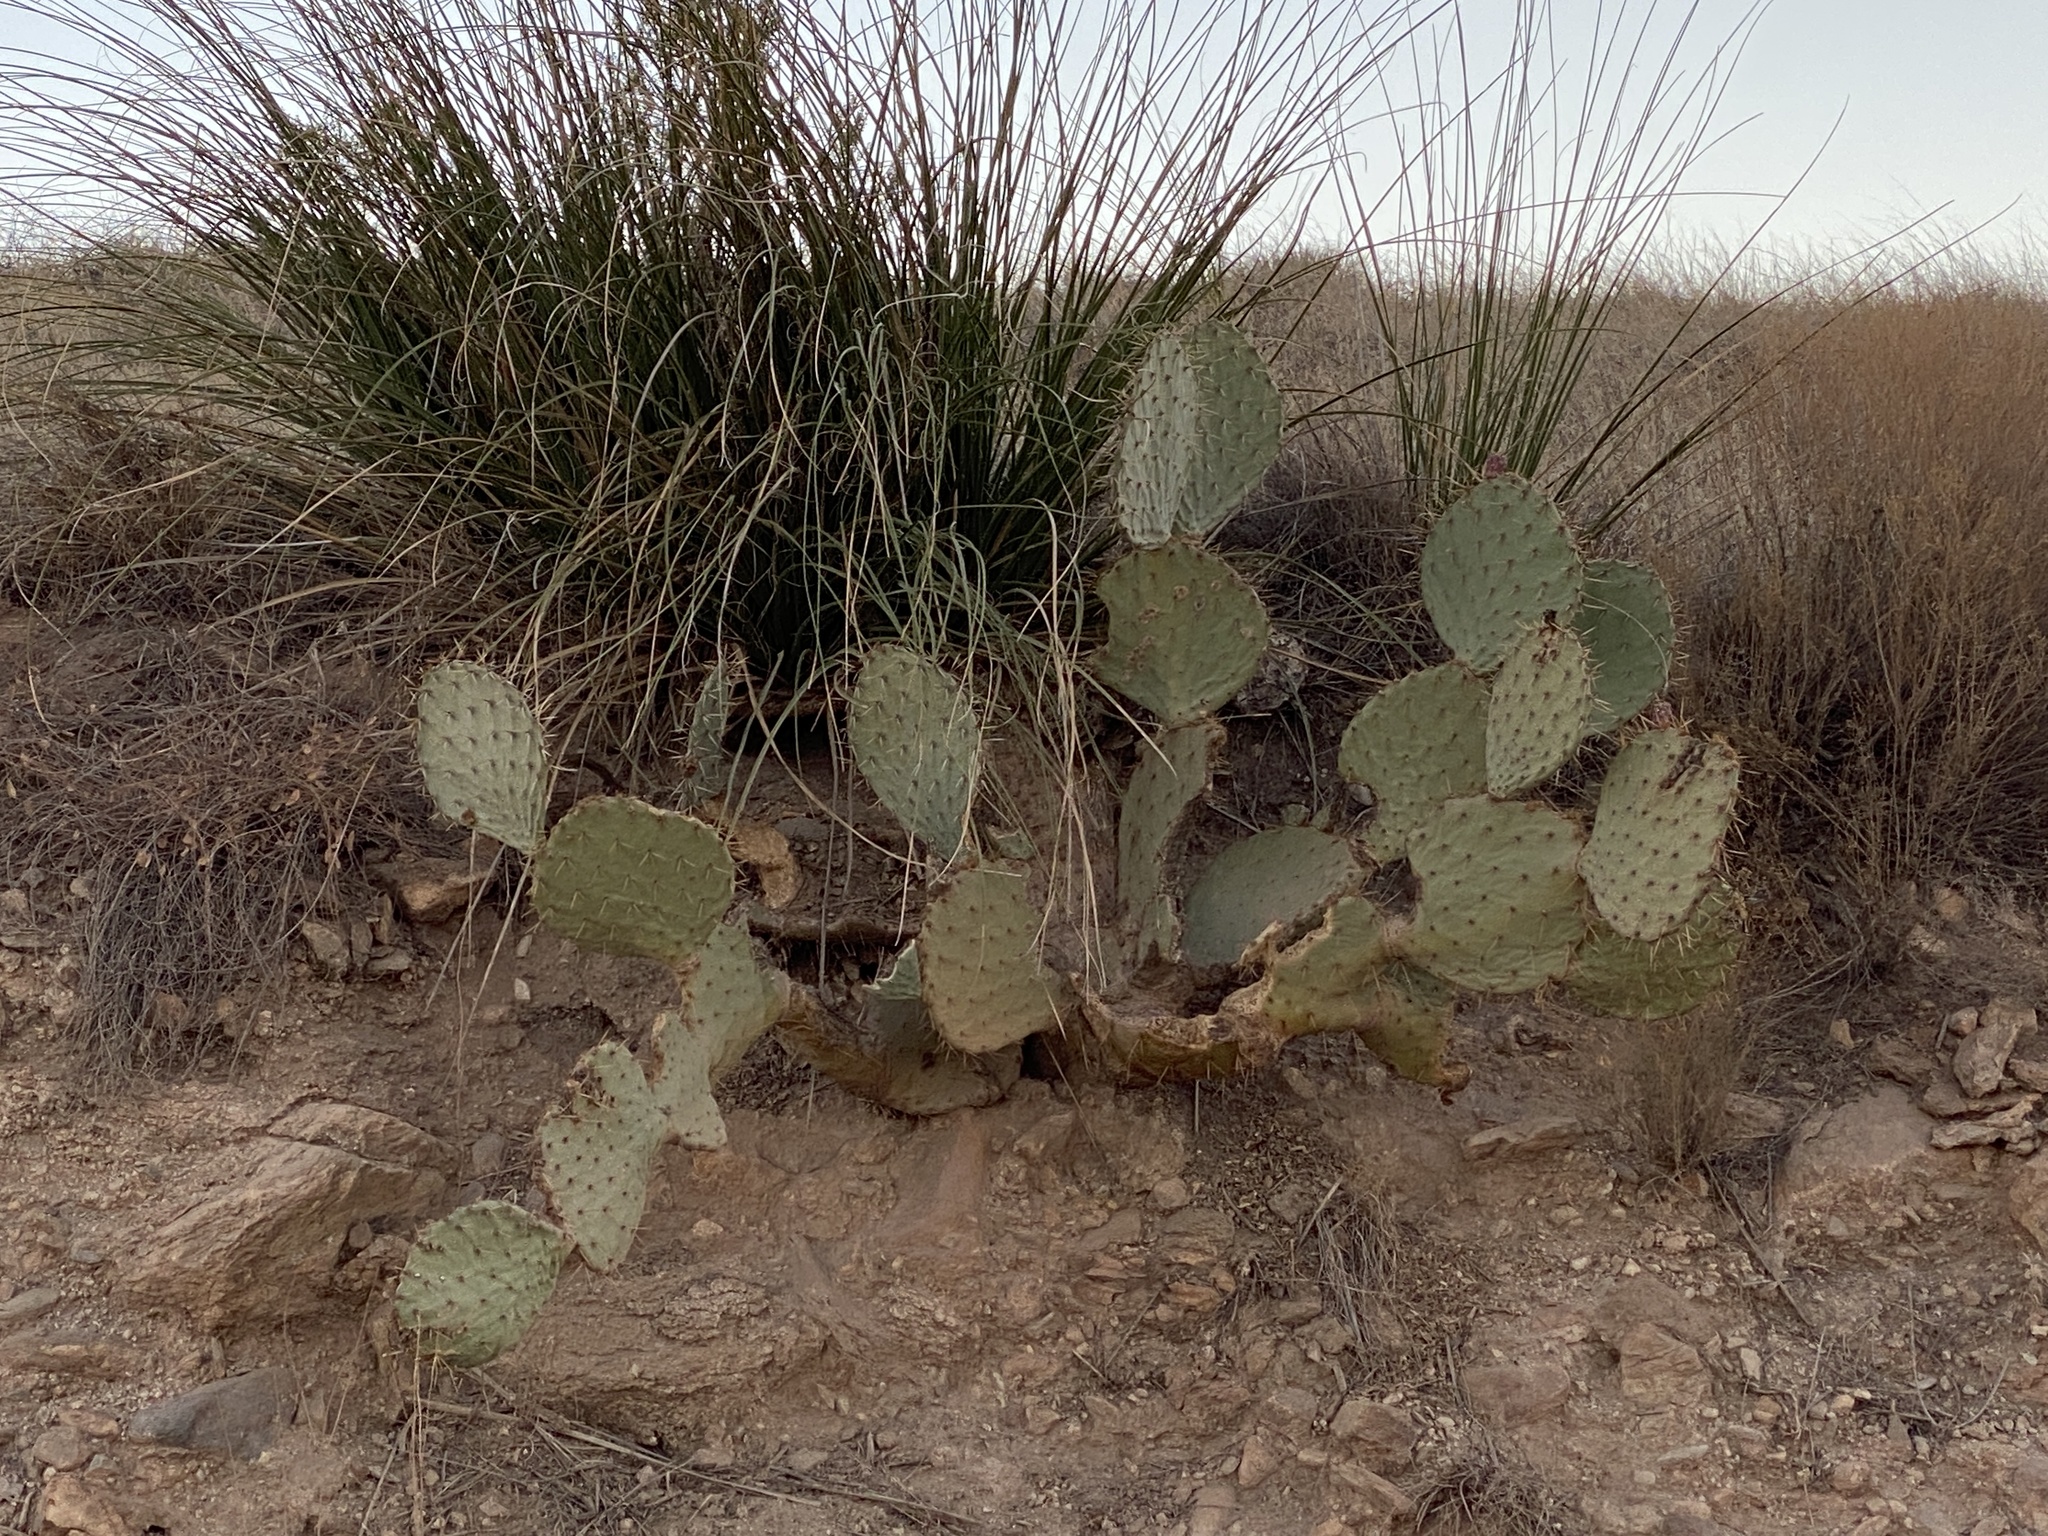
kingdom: Plantae
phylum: Tracheophyta
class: Magnoliopsida
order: Caryophyllales
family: Cactaceae
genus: Opuntia
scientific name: Opuntia engelmannii
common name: Cactus-apple
